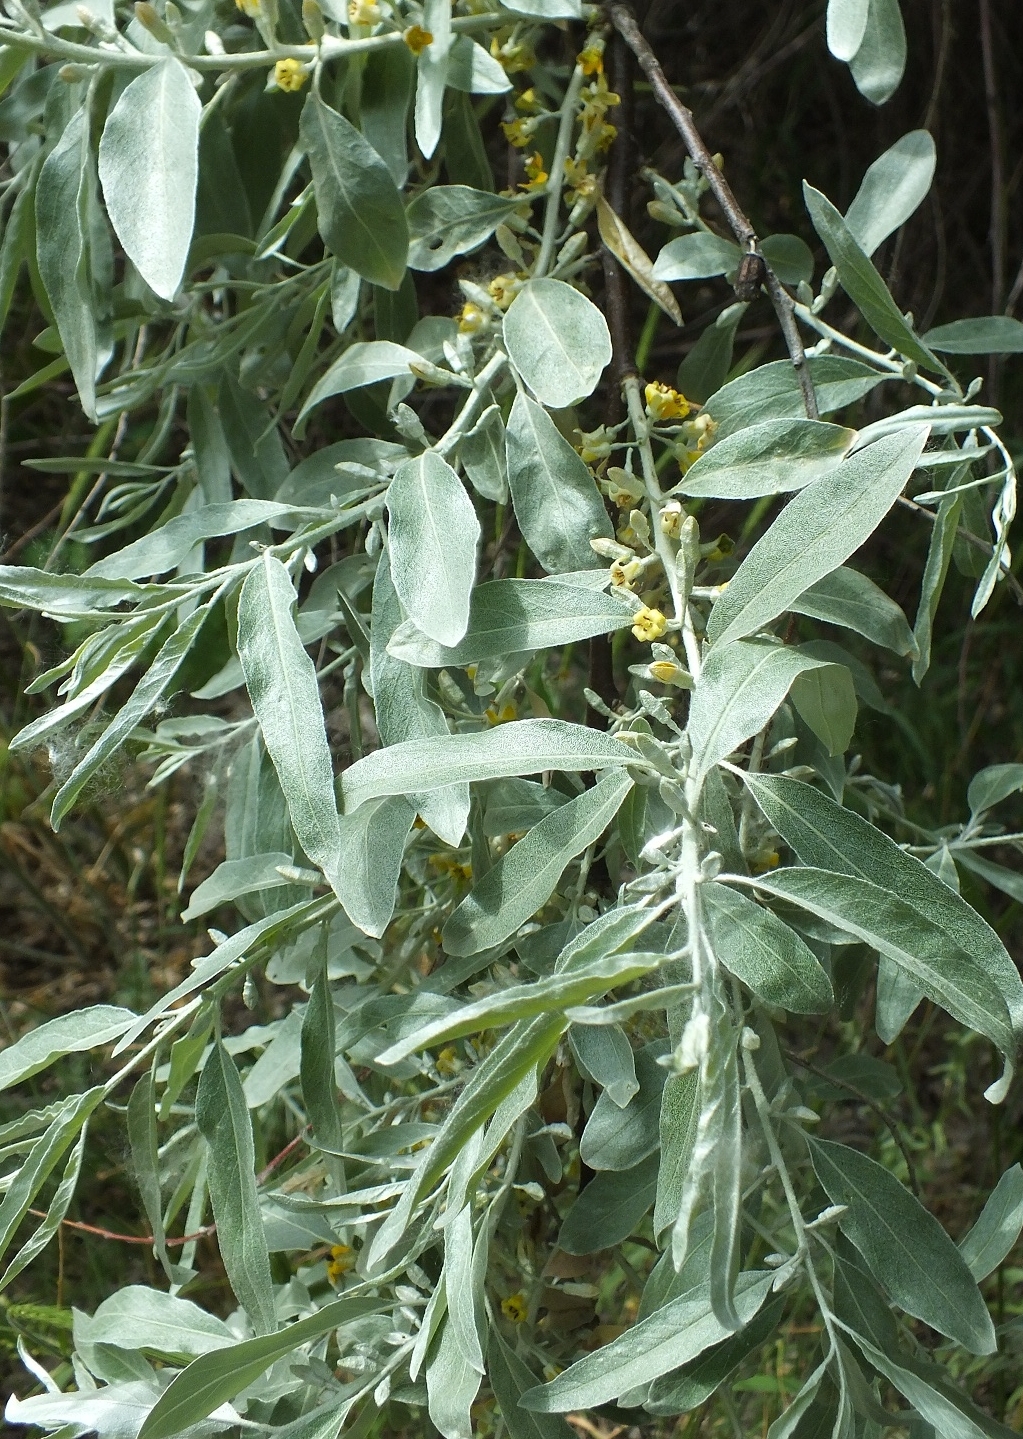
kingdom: Plantae
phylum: Tracheophyta
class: Magnoliopsida
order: Rosales
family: Elaeagnaceae
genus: Elaeagnus
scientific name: Elaeagnus angustifolia
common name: Russian olive
